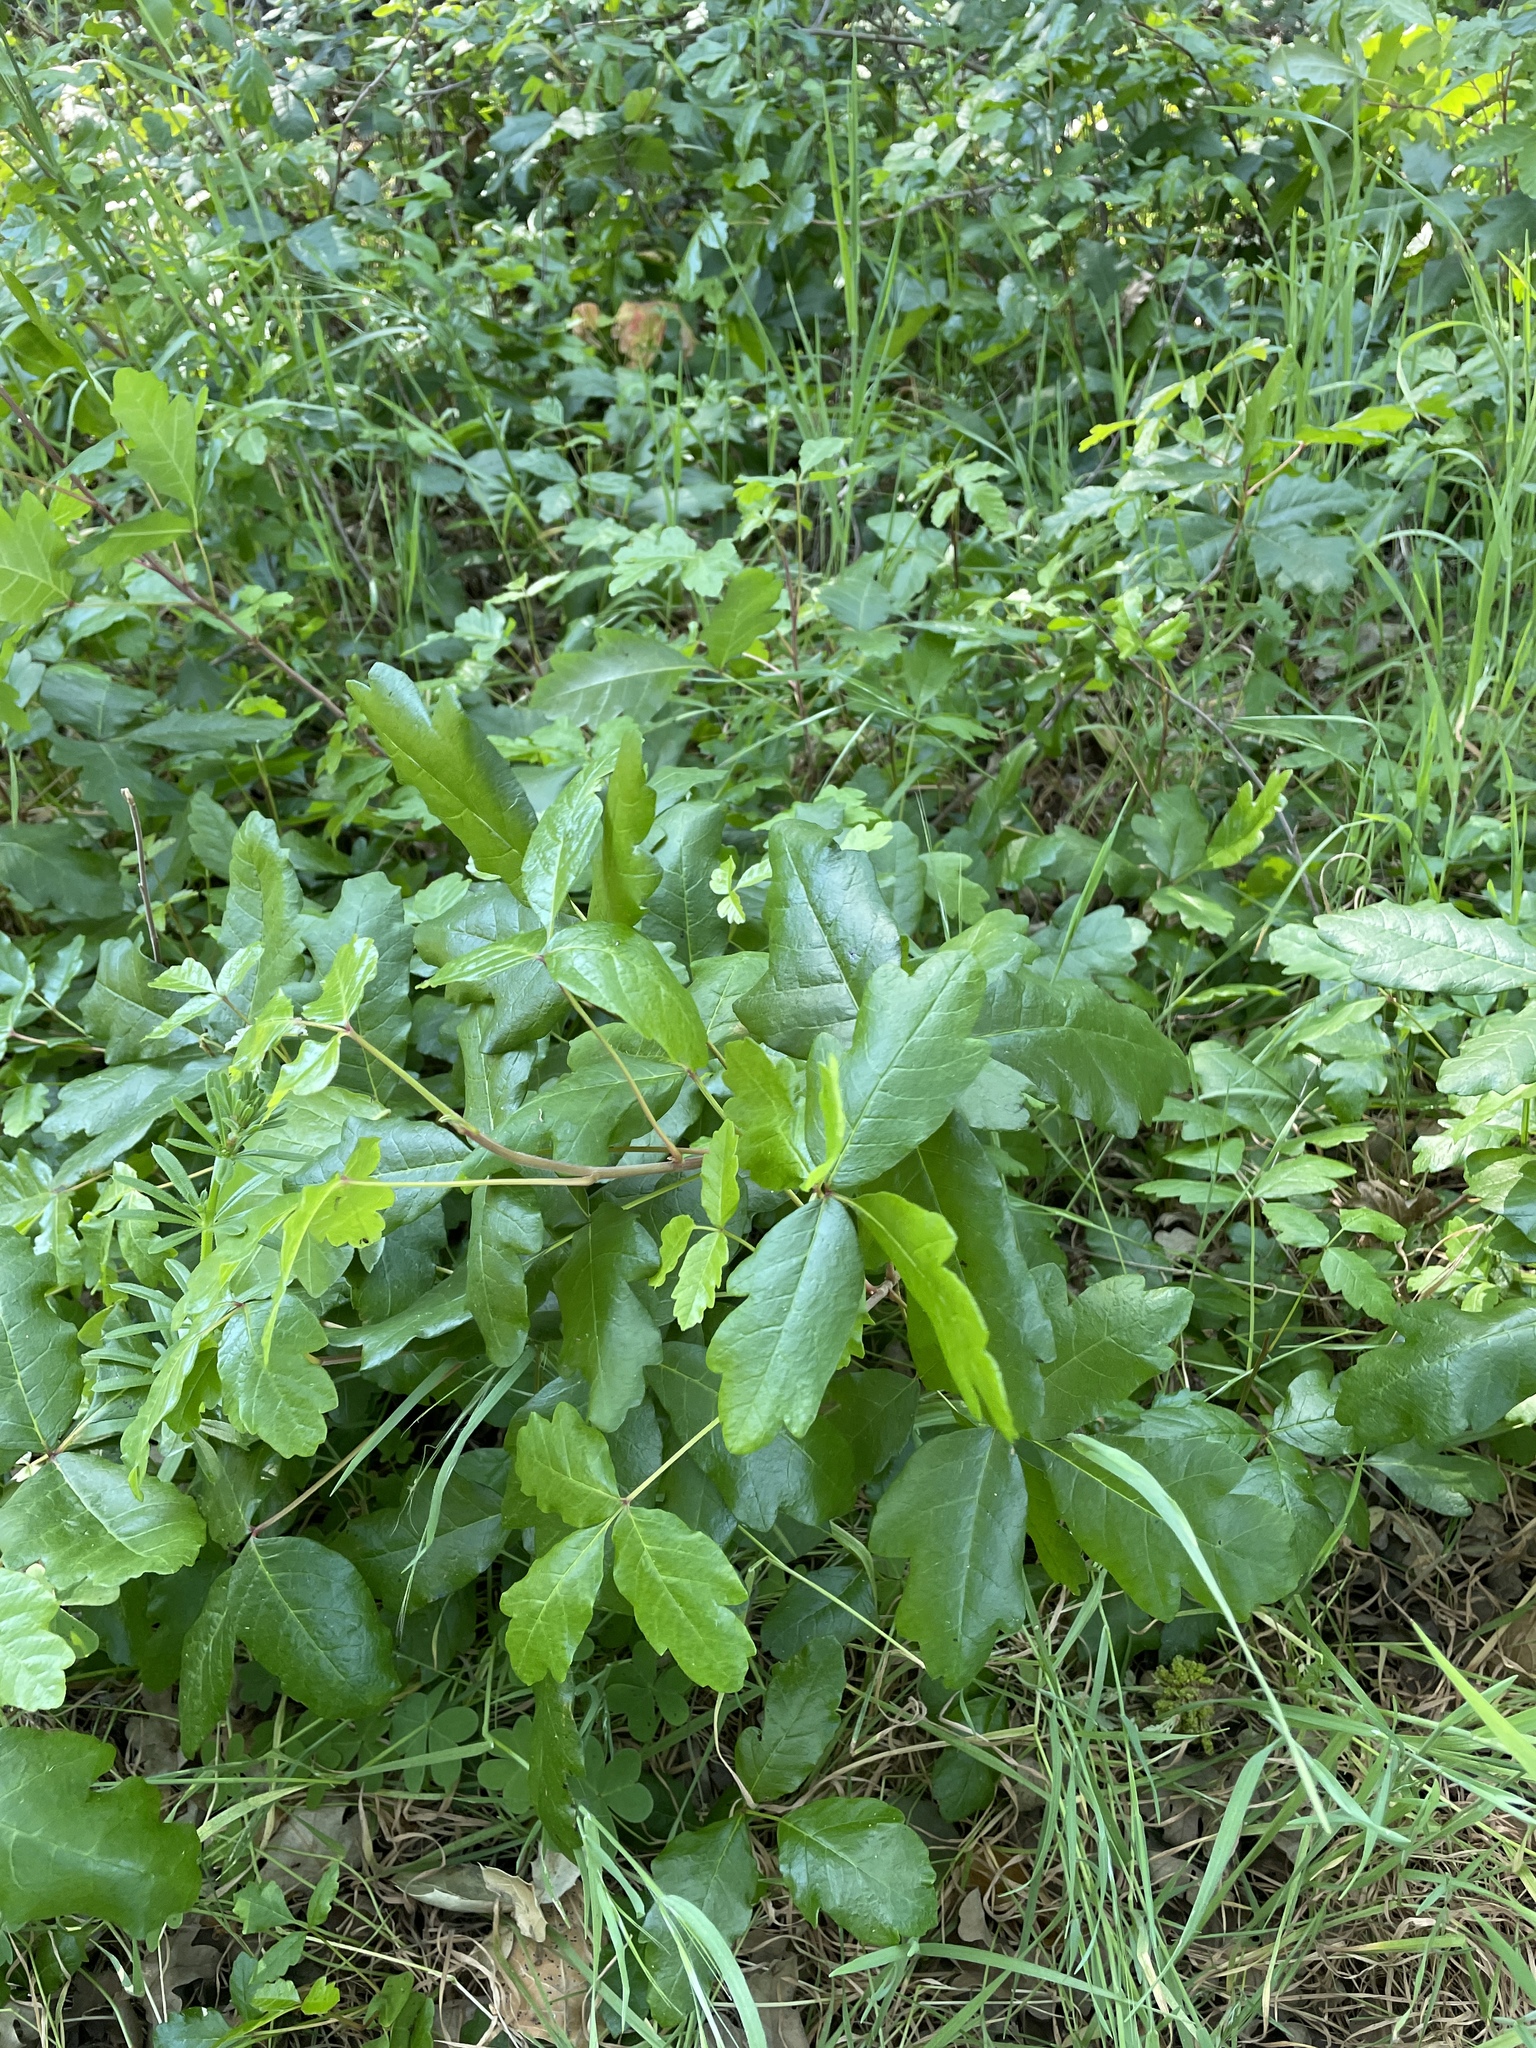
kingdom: Plantae
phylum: Tracheophyta
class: Magnoliopsida
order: Sapindales
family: Anacardiaceae
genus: Toxicodendron
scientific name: Toxicodendron diversilobum
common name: Pacific poison-oak
